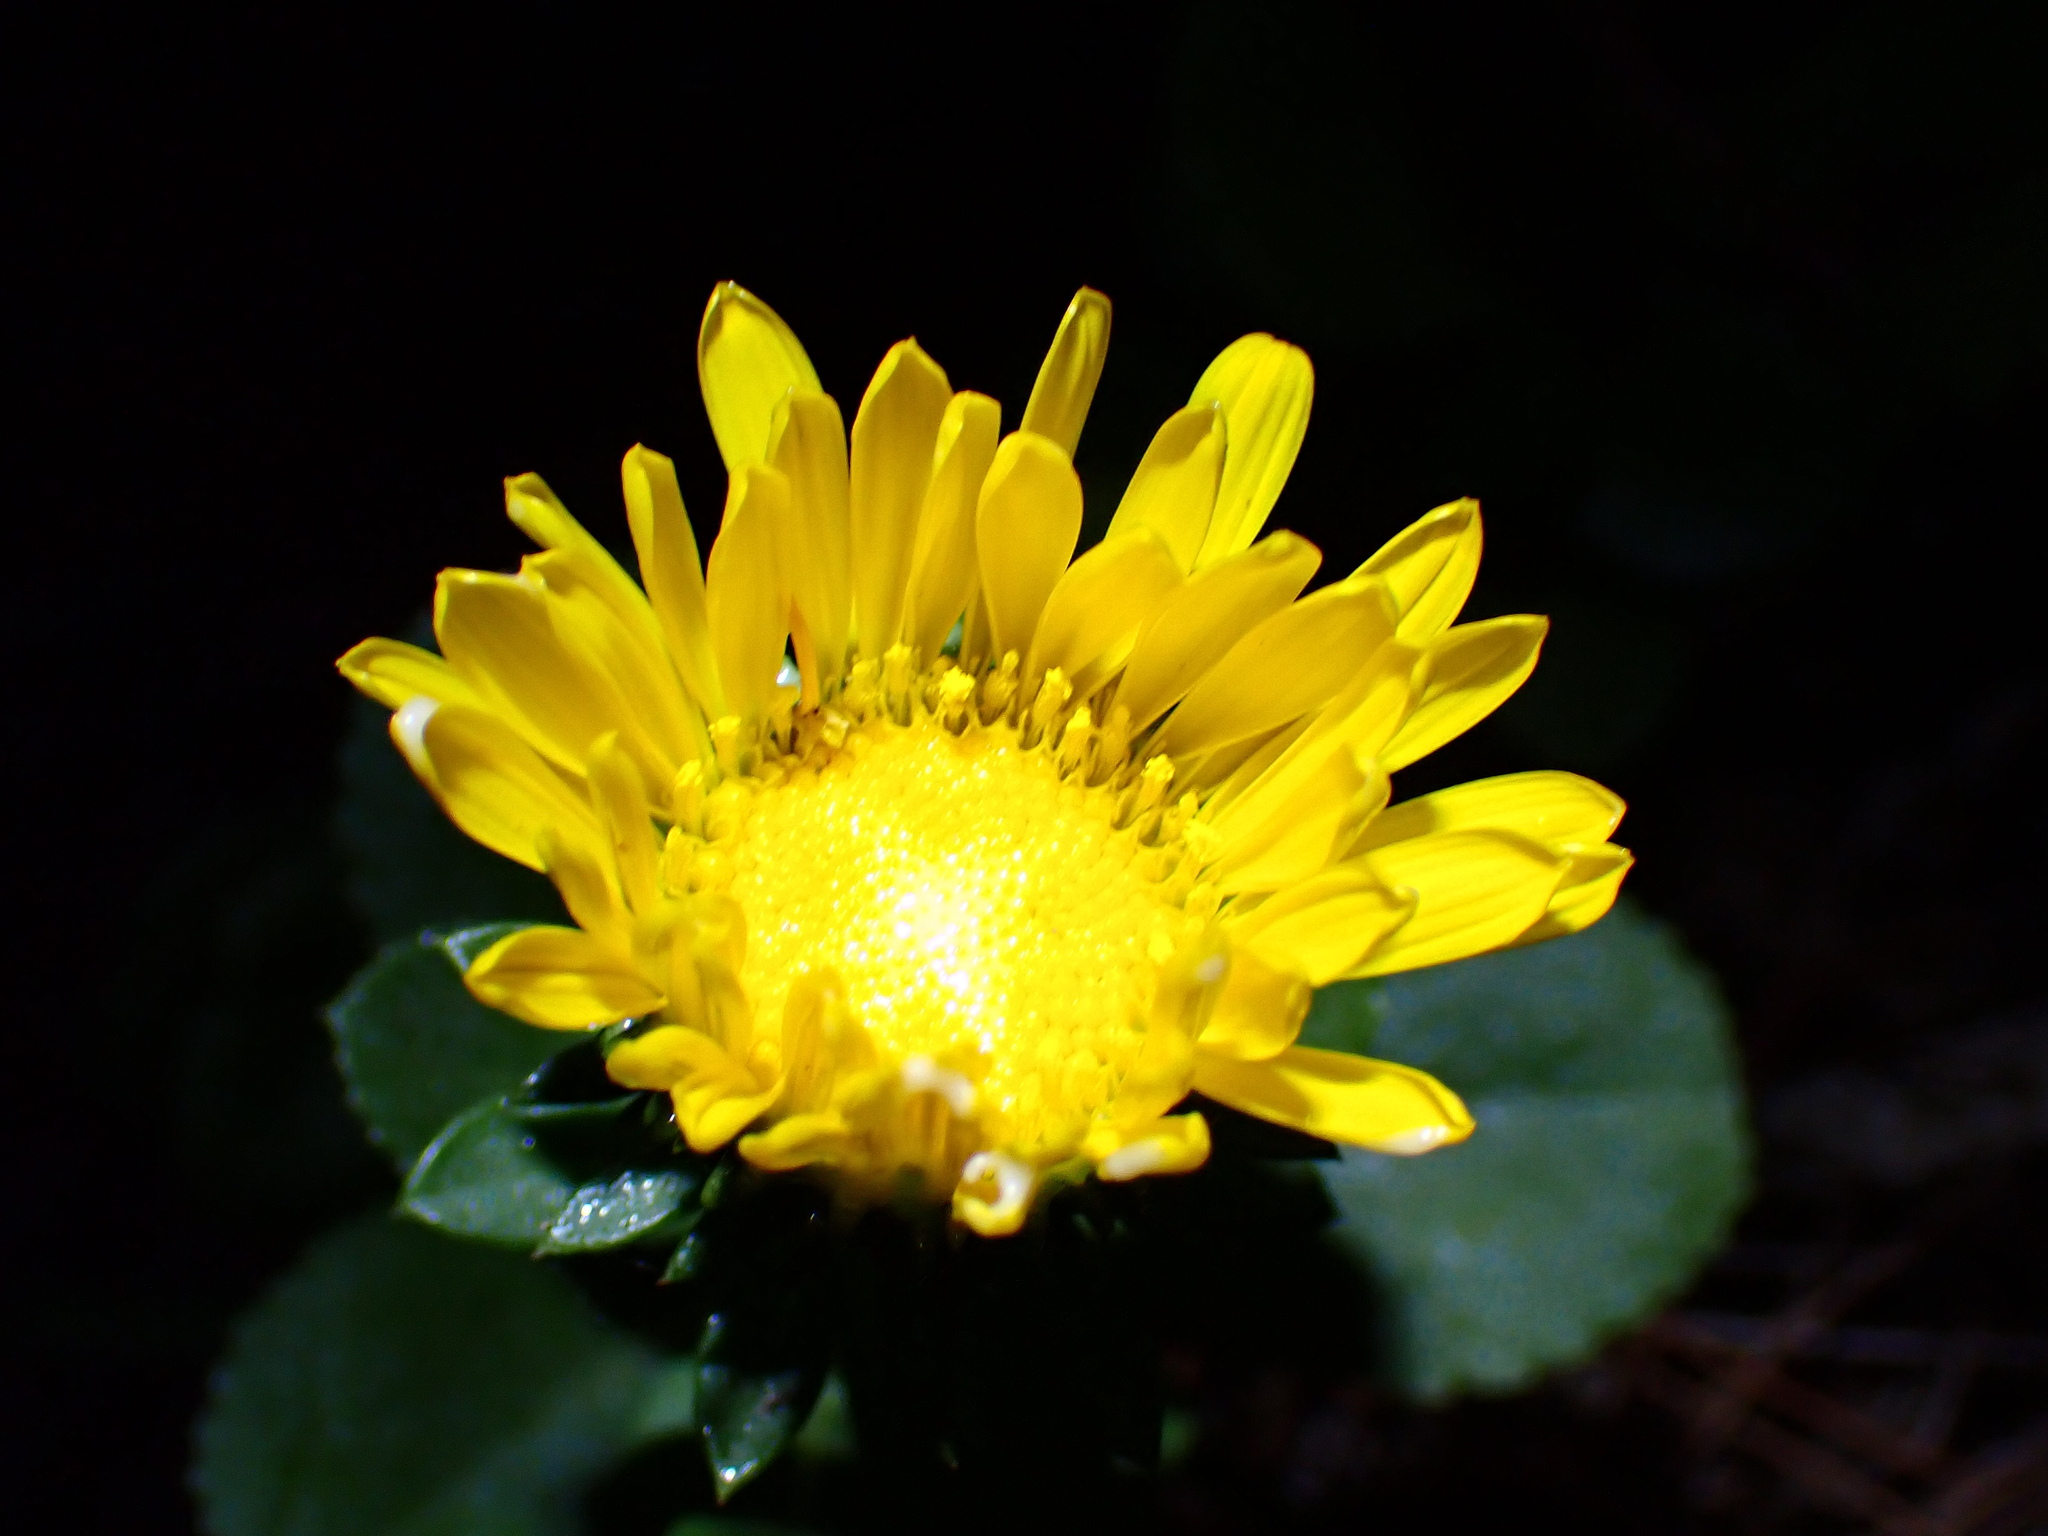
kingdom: Plantae
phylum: Tracheophyta
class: Magnoliopsida
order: Asterales
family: Asteraceae
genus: Grindelia
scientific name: Grindelia hirsutula
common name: Hairy gumweed
